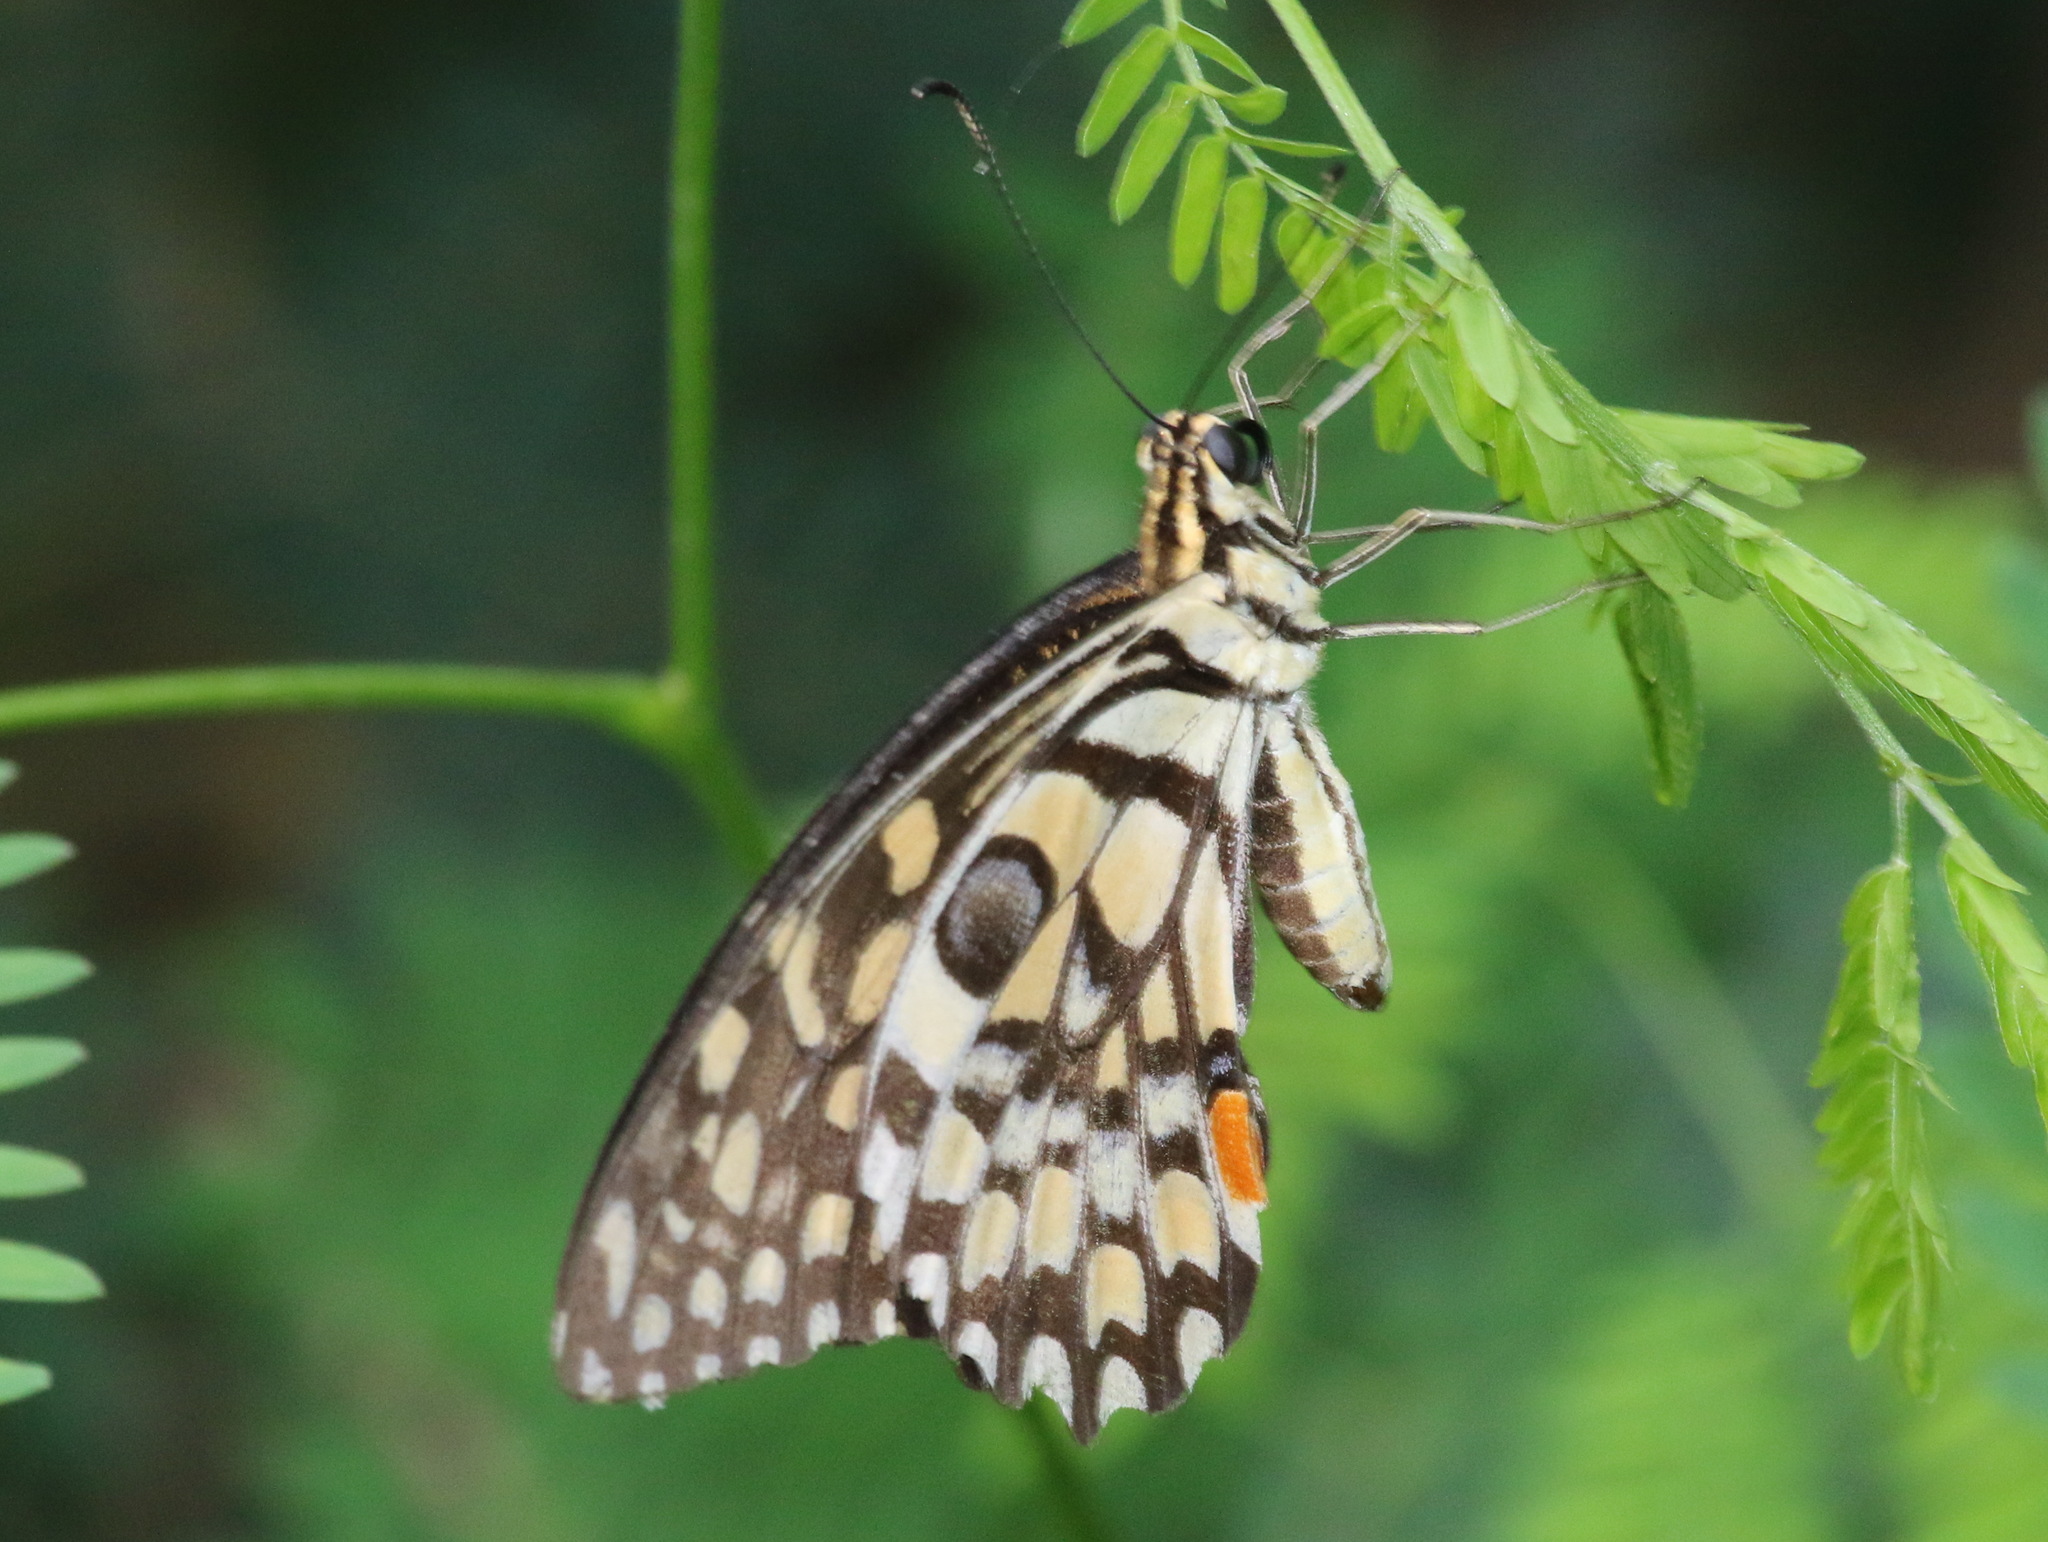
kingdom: Animalia
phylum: Arthropoda
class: Insecta
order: Lepidoptera
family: Papilionidae
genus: Papilio
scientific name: Papilio demoleus
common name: Lime butterfly
